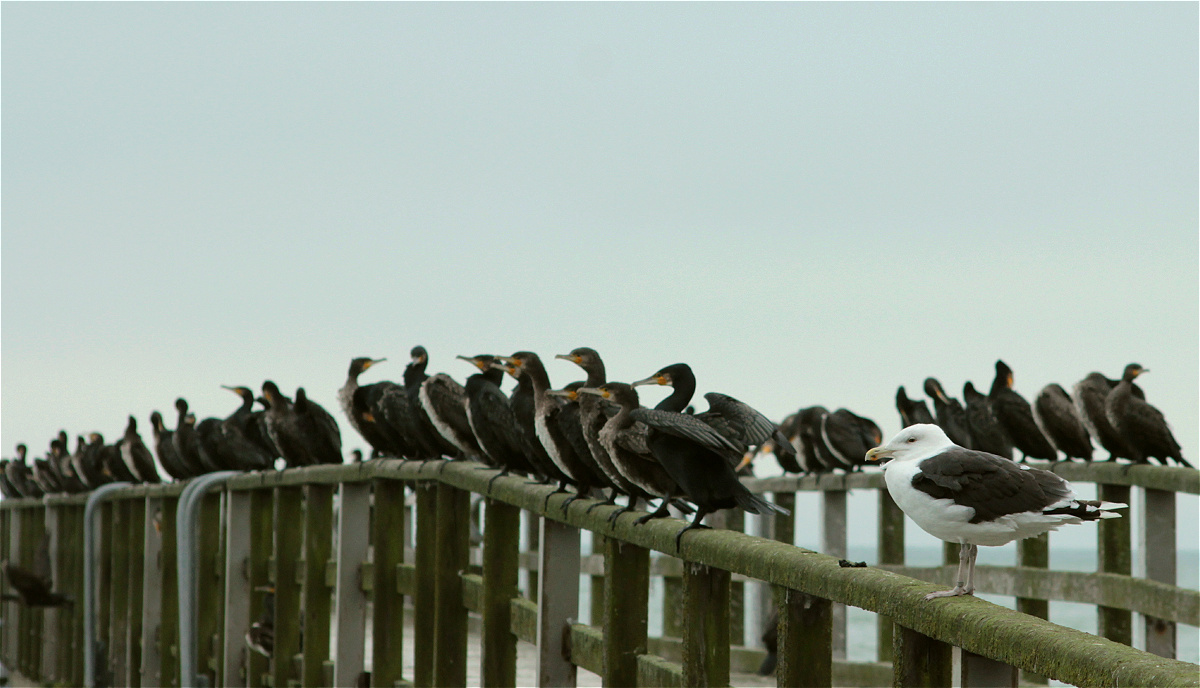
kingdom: Animalia
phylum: Chordata
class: Aves
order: Charadriiformes
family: Laridae
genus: Larus
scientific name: Larus marinus
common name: Great black-backed gull
